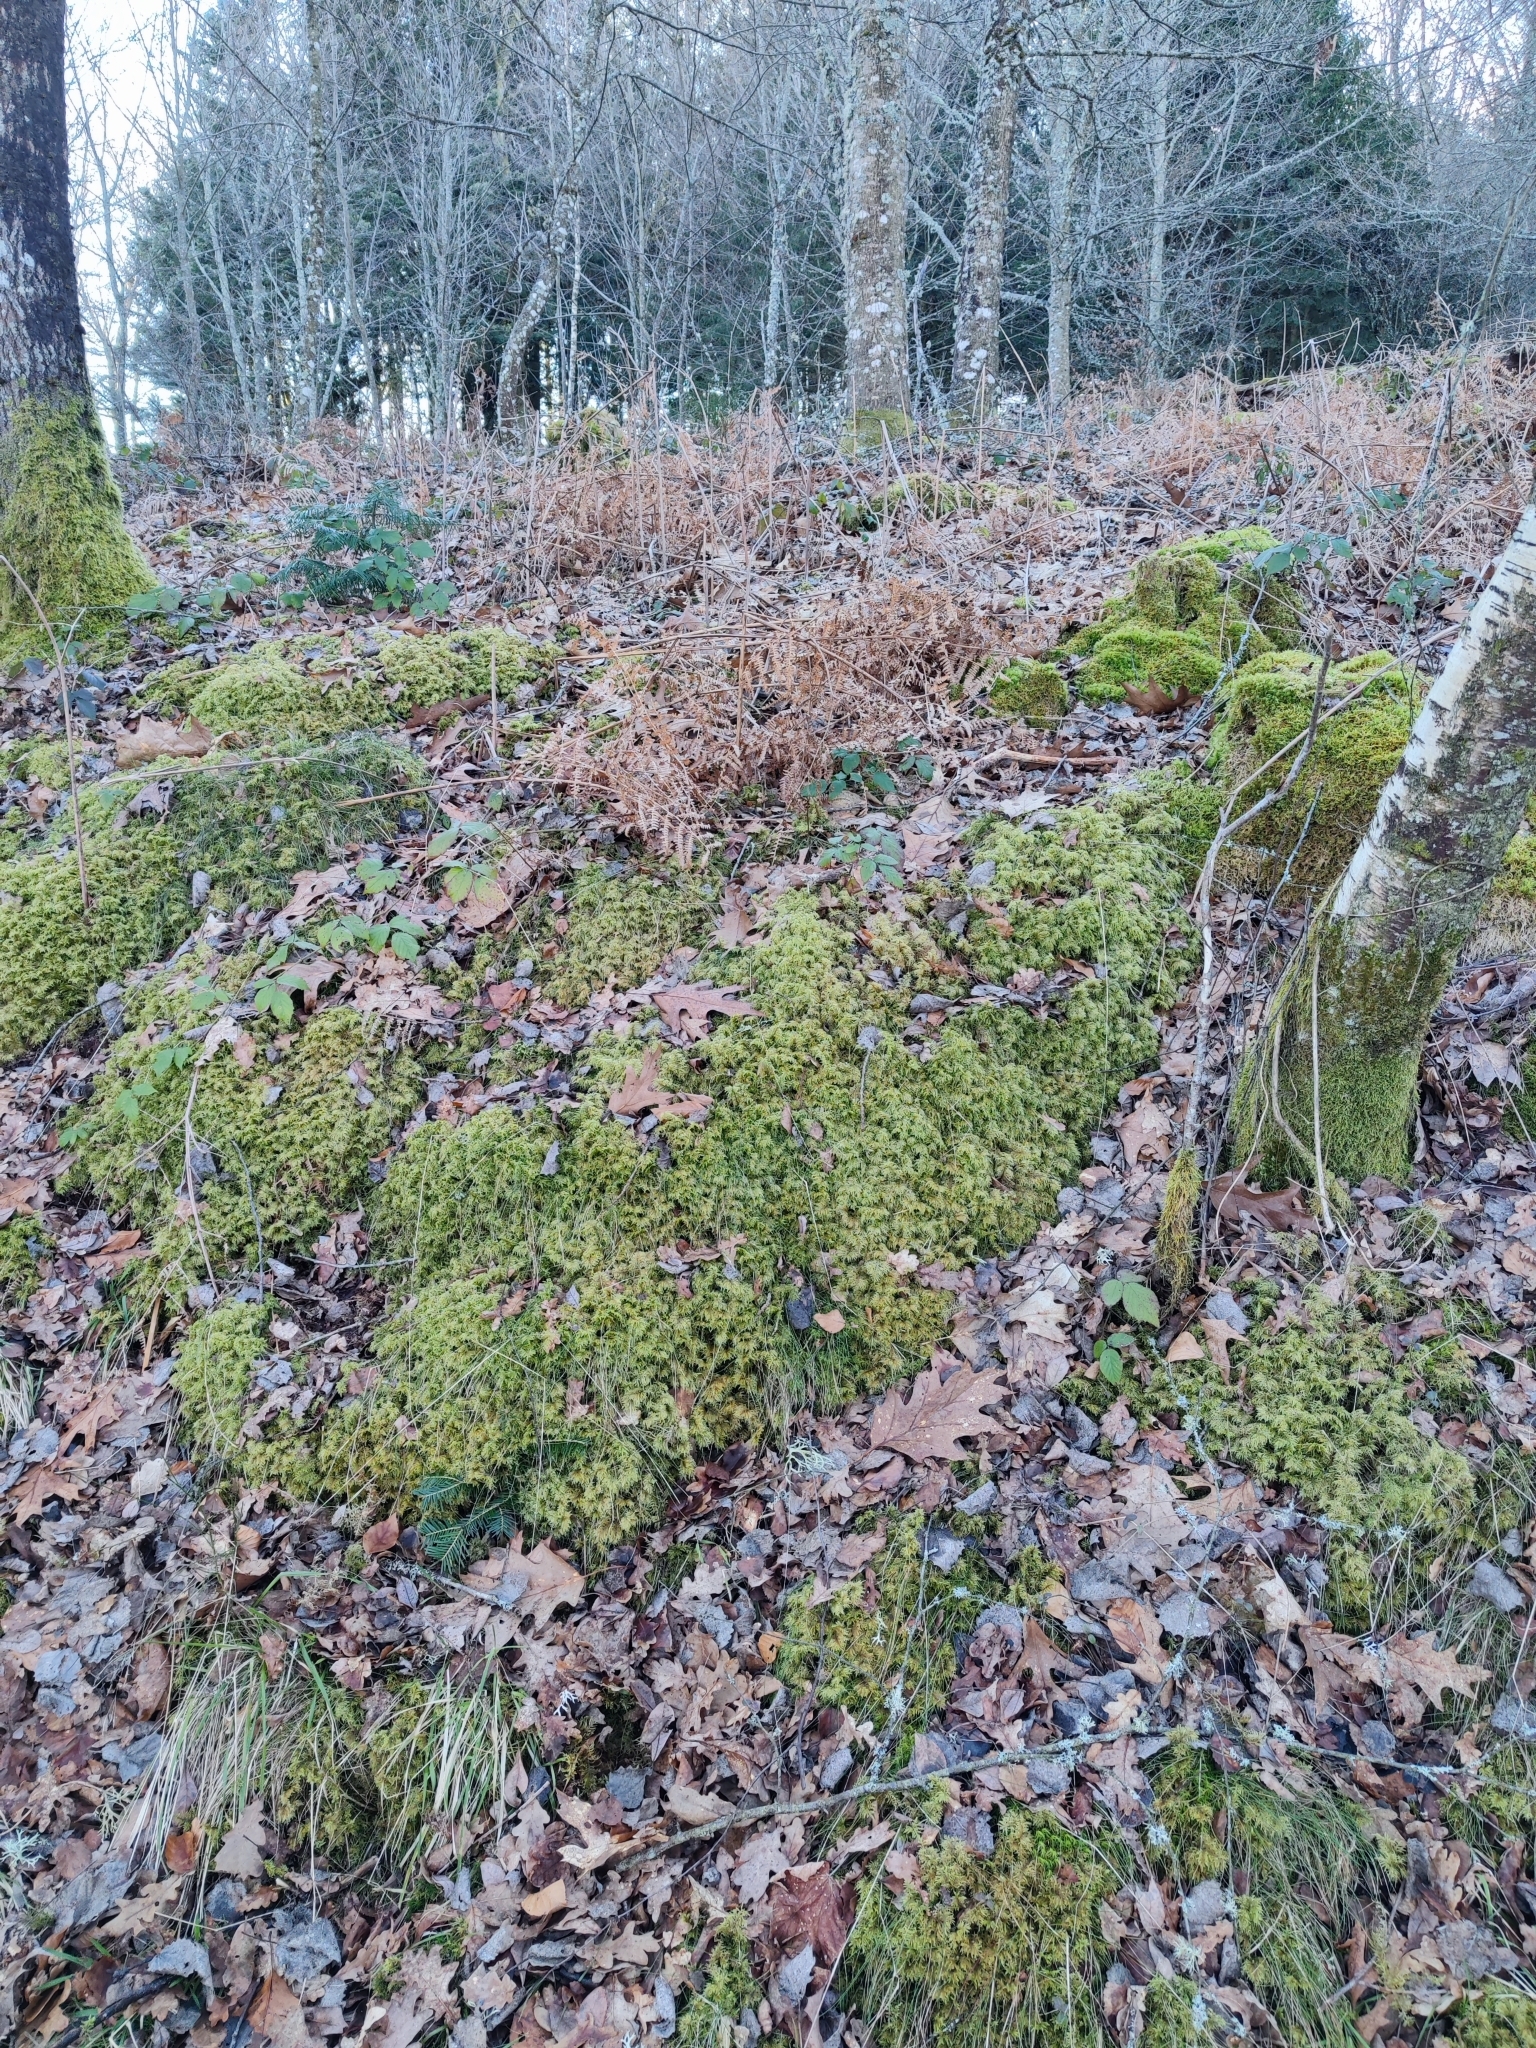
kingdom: Plantae
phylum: Bryophyta
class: Bryopsida
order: Hypnales
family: Hylocomiaceae
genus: Hylocomium
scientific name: Hylocomium splendens
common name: Stairstep moss
